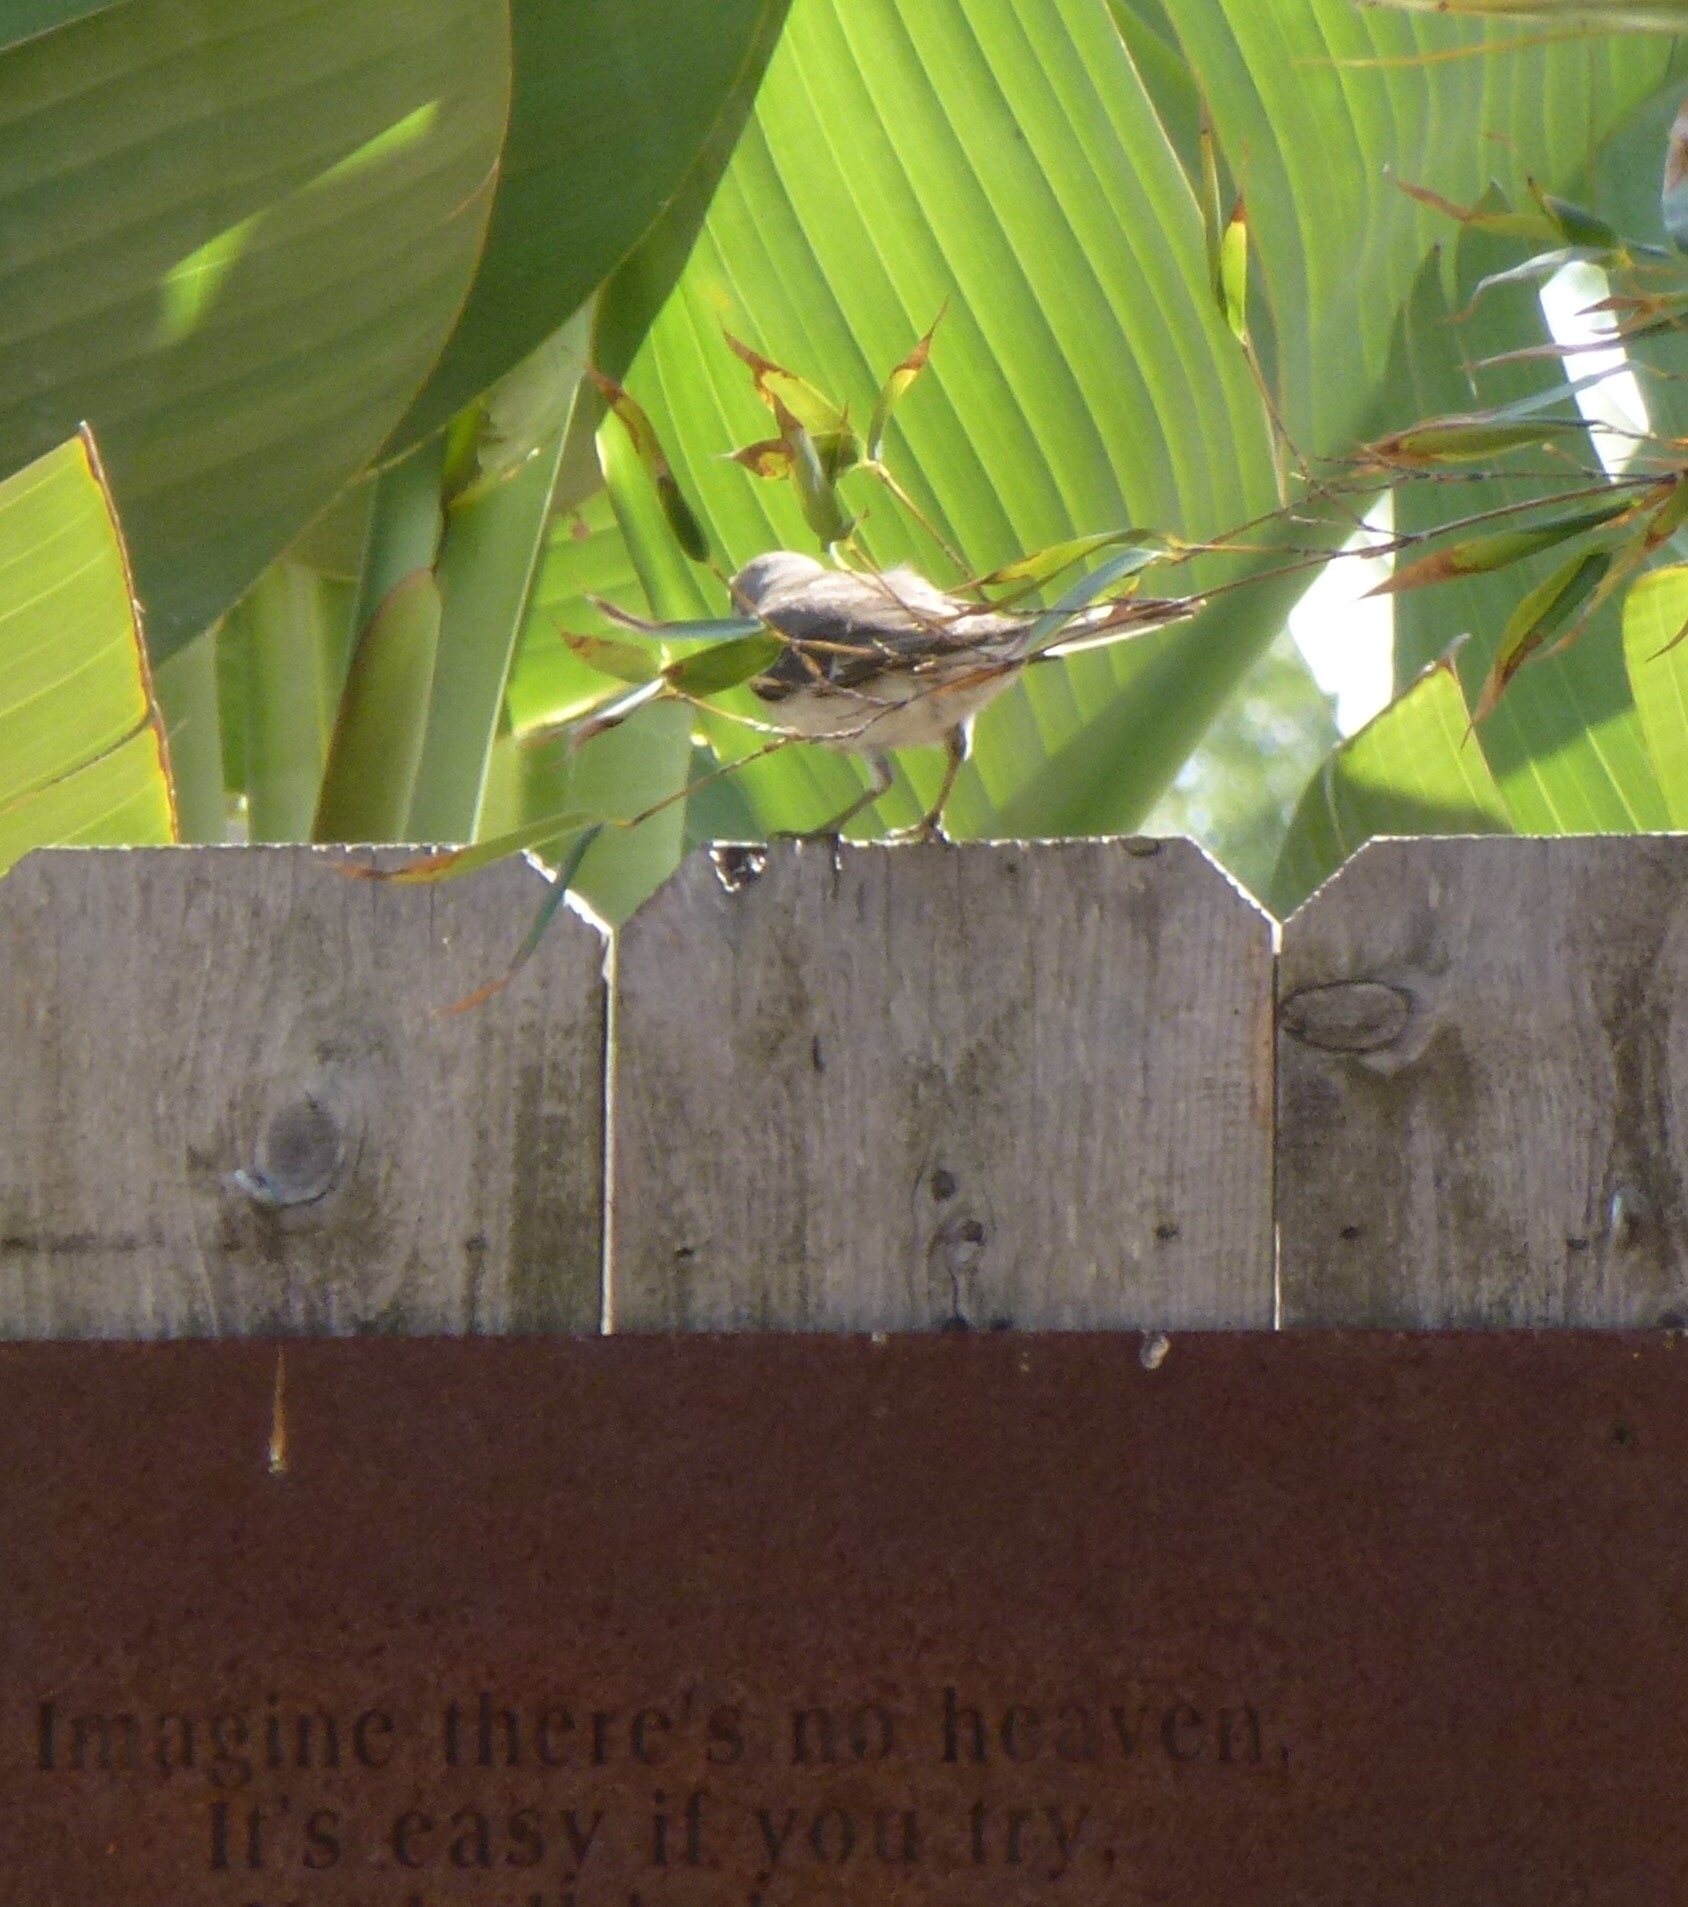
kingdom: Animalia
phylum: Chordata
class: Aves
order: Passeriformes
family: Mimidae
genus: Mimus
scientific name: Mimus polyglottos
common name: Northern mockingbird
